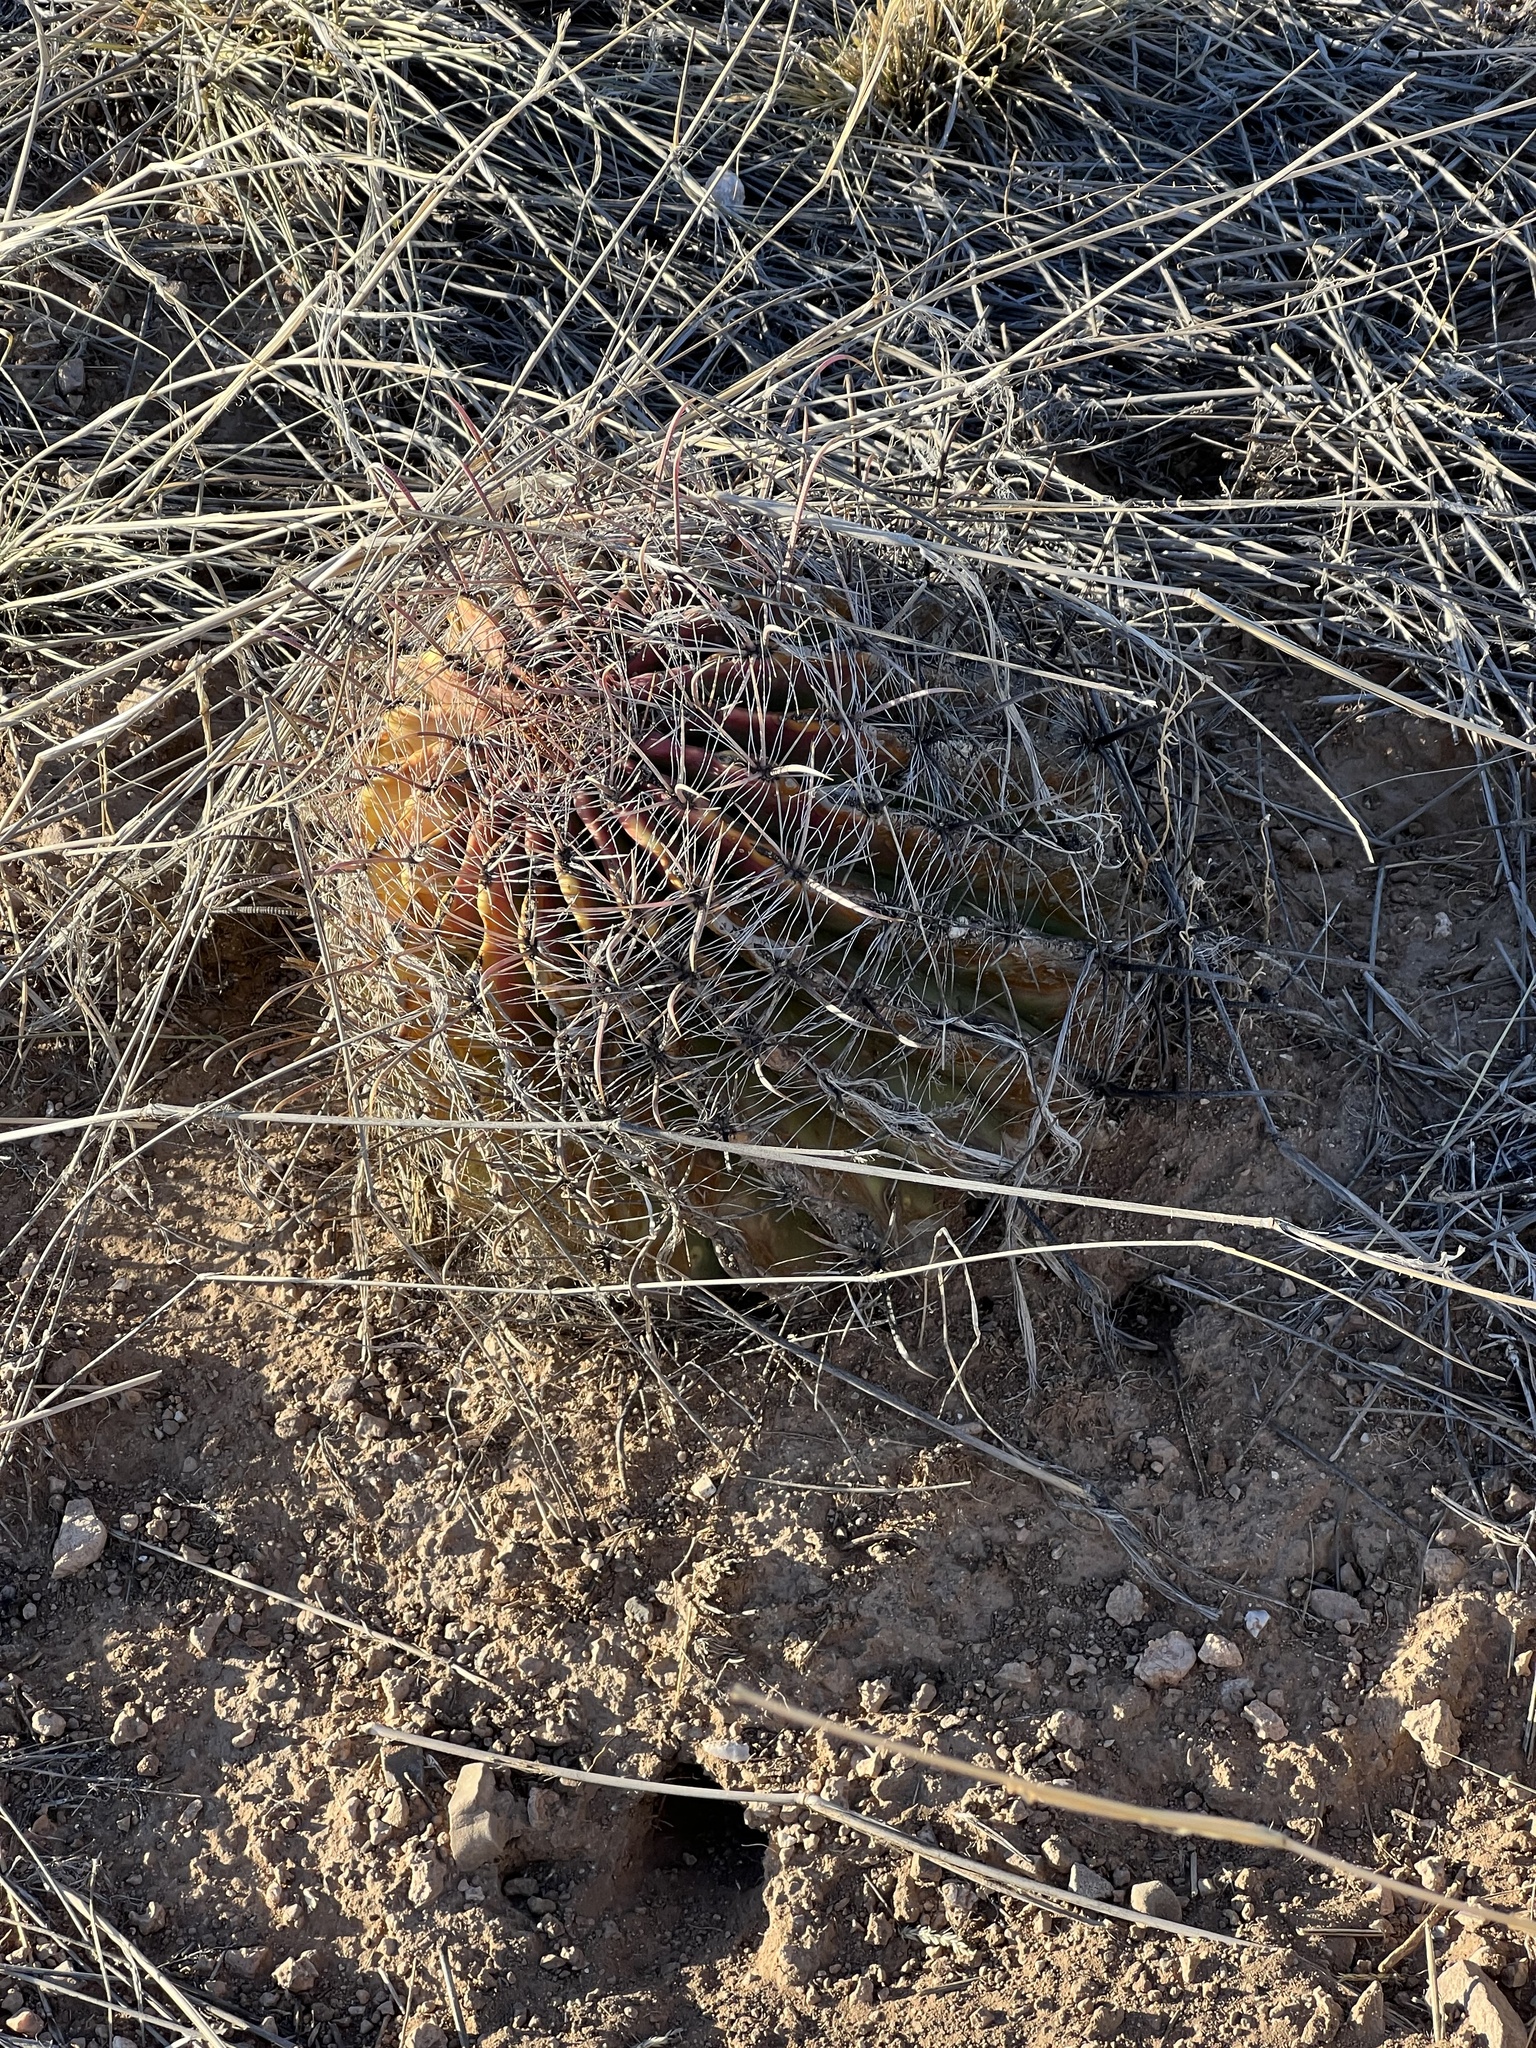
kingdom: Plantae
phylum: Tracheophyta
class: Magnoliopsida
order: Caryophyllales
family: Cactaceae
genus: Ferocactus
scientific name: Ferocactus wislizeni
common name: Candy barrel cactus
